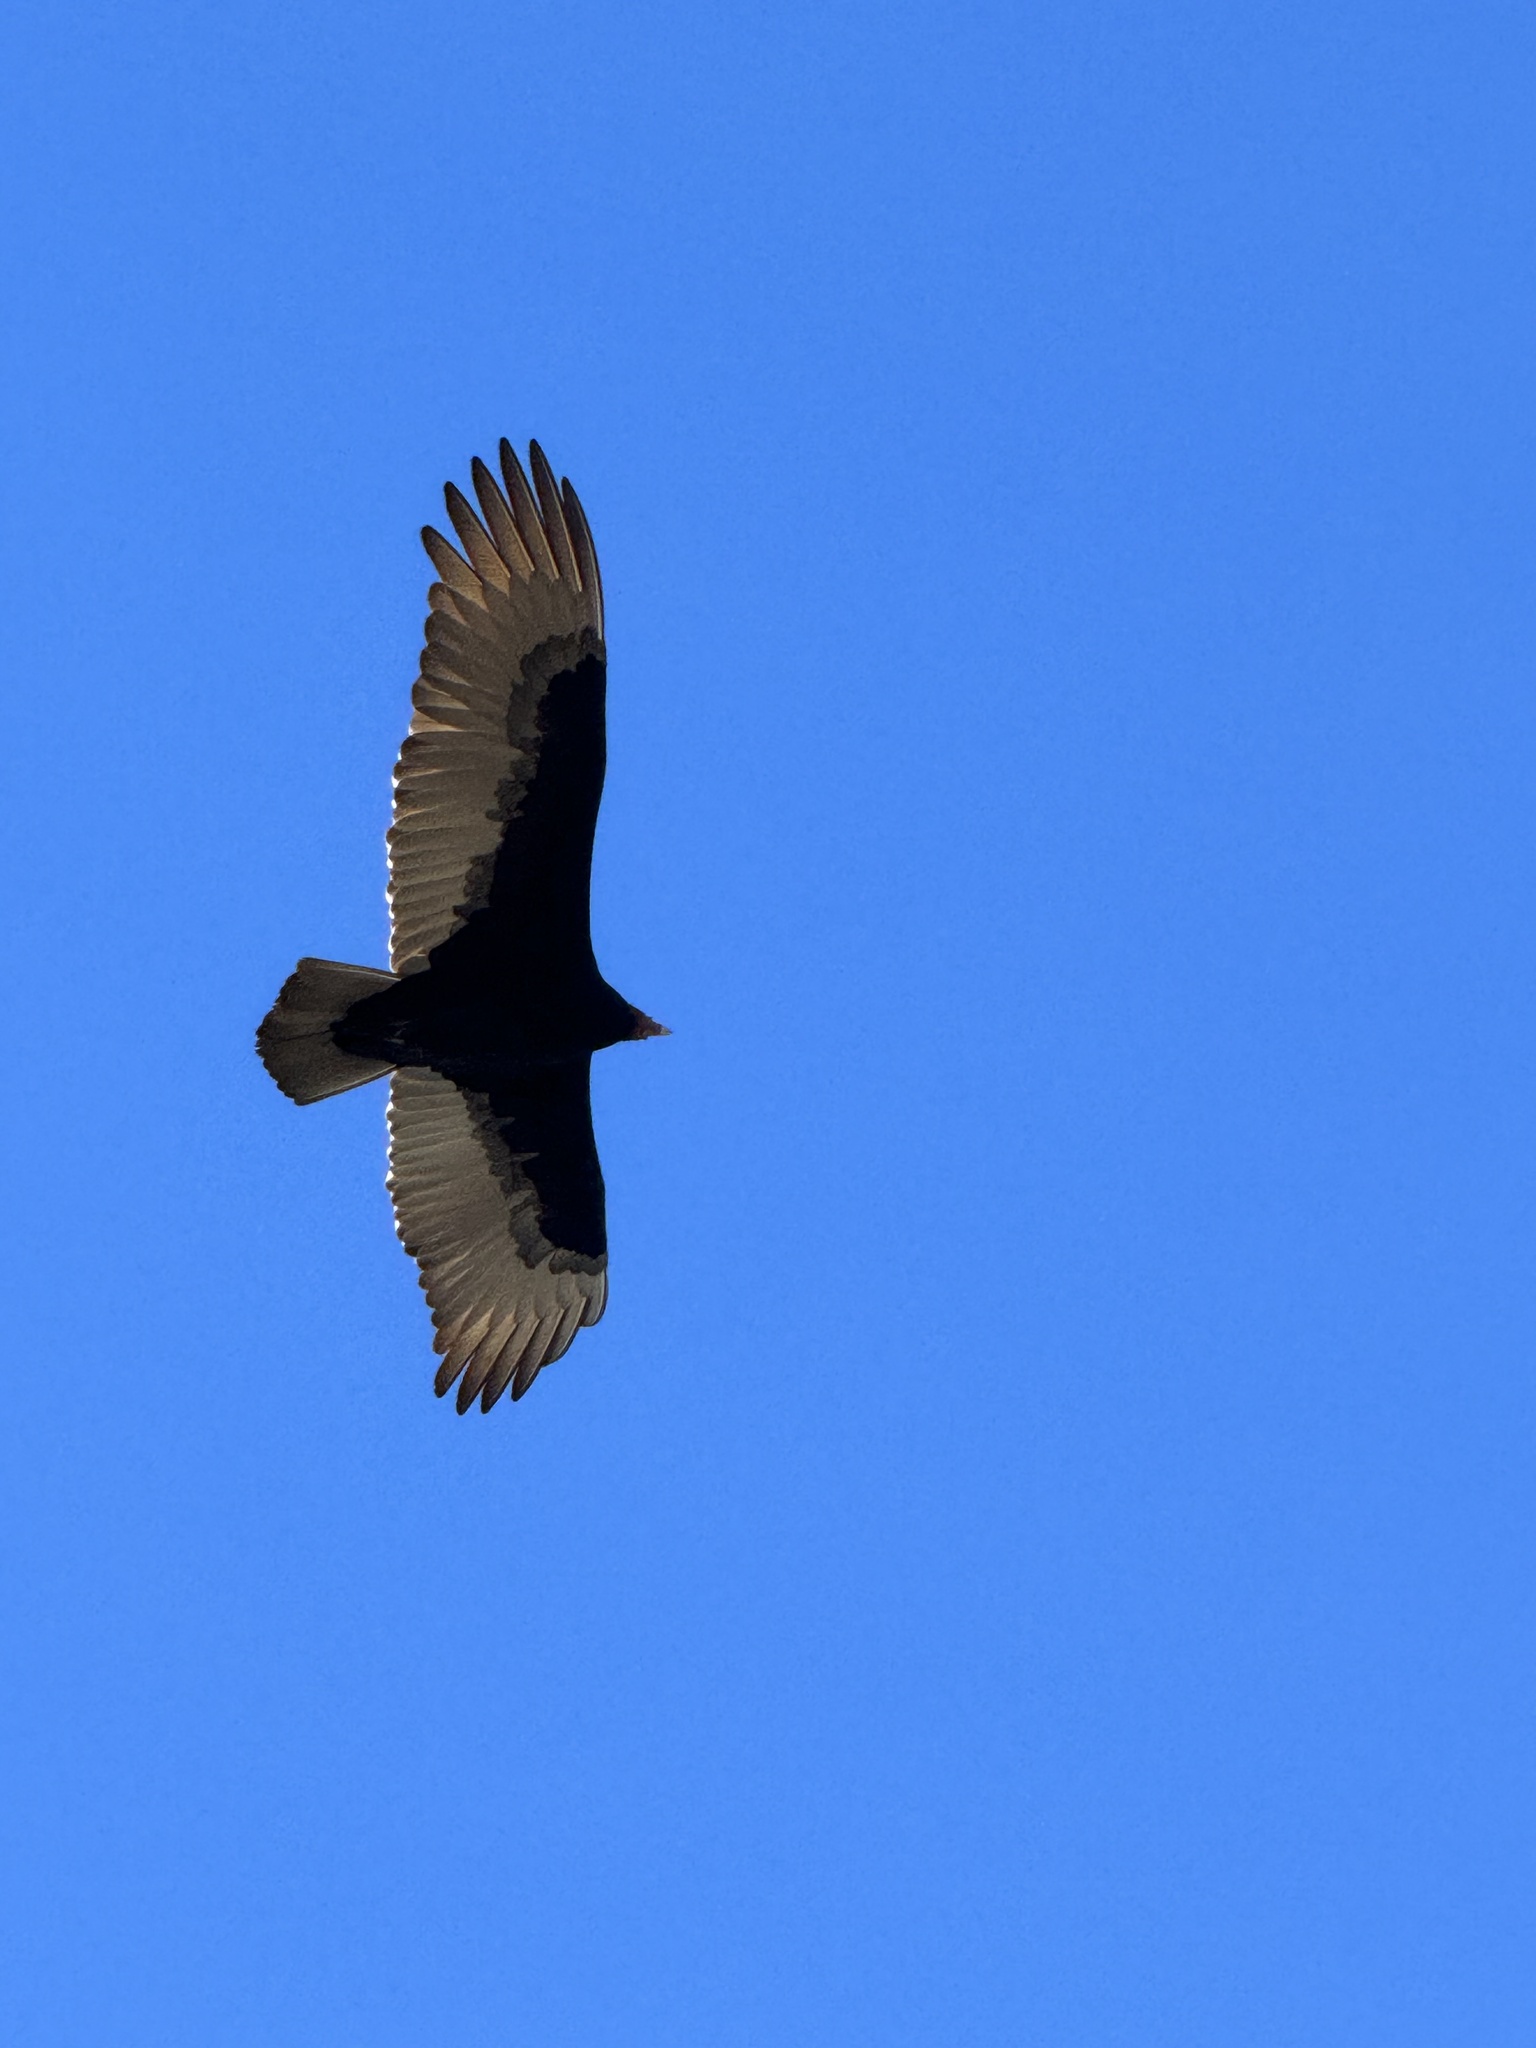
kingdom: Animalia
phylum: Chordata
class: Aves
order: Accipitriformes
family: Cathartidae
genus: Cathartes
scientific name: Cathartes aura
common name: Turkey vulture
